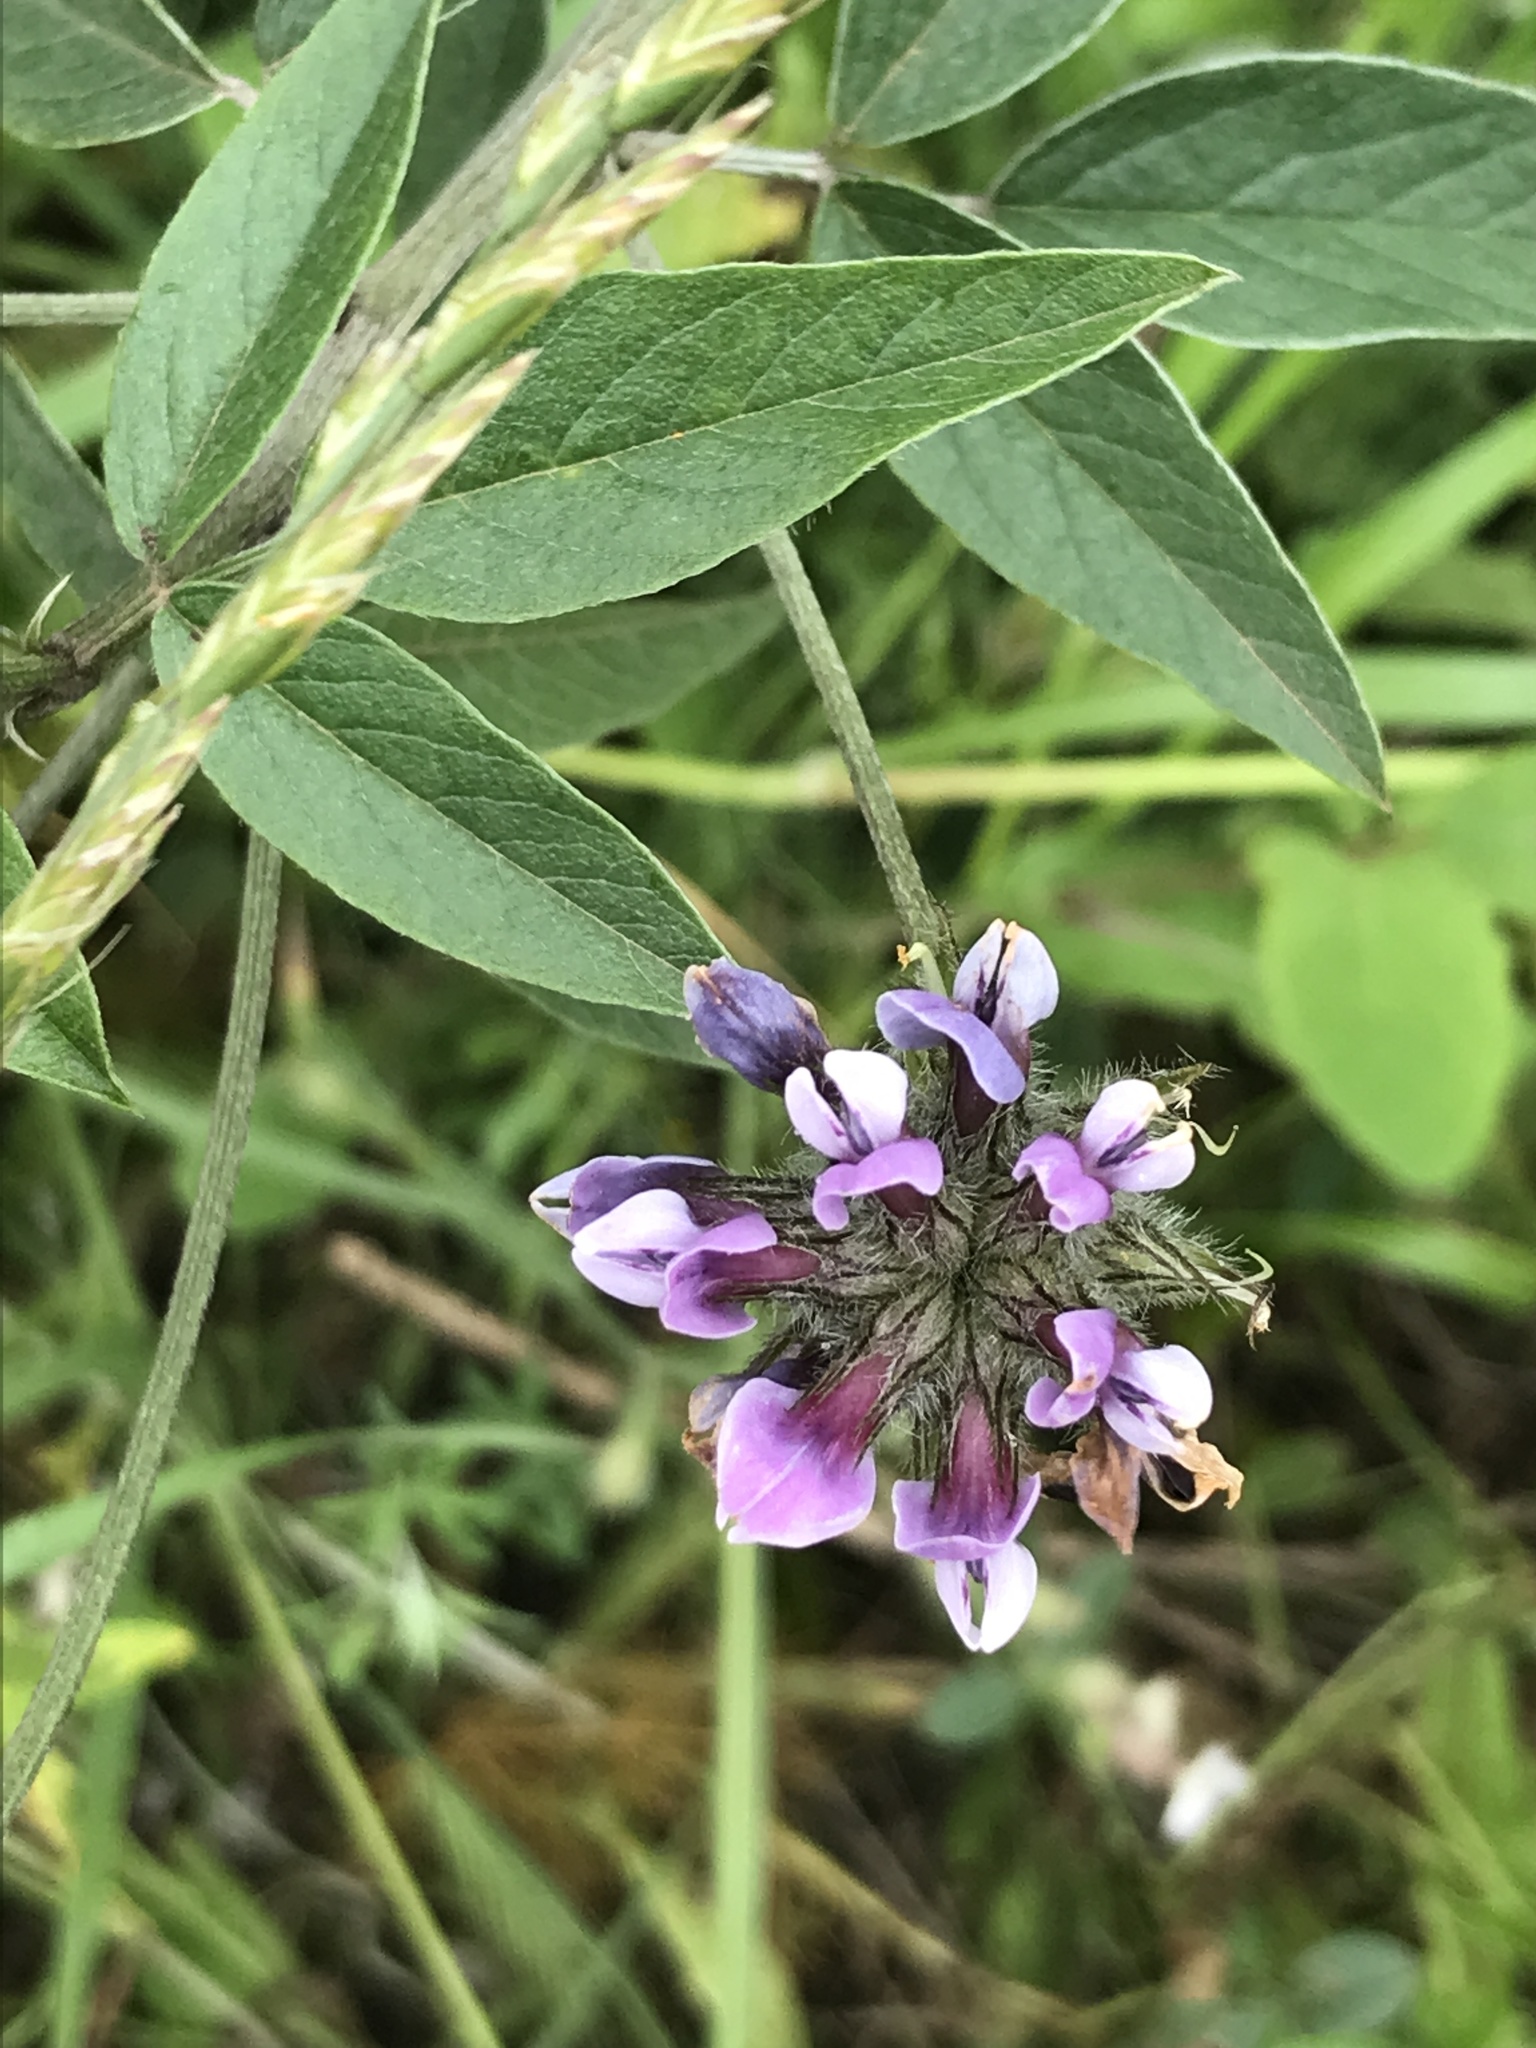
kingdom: Plantae
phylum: Tracheophyta
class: Magnoliopsida
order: Fabales
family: Fabaceae
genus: Bituminaria
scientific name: Bituminaria bituminosa
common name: Arabian pea
